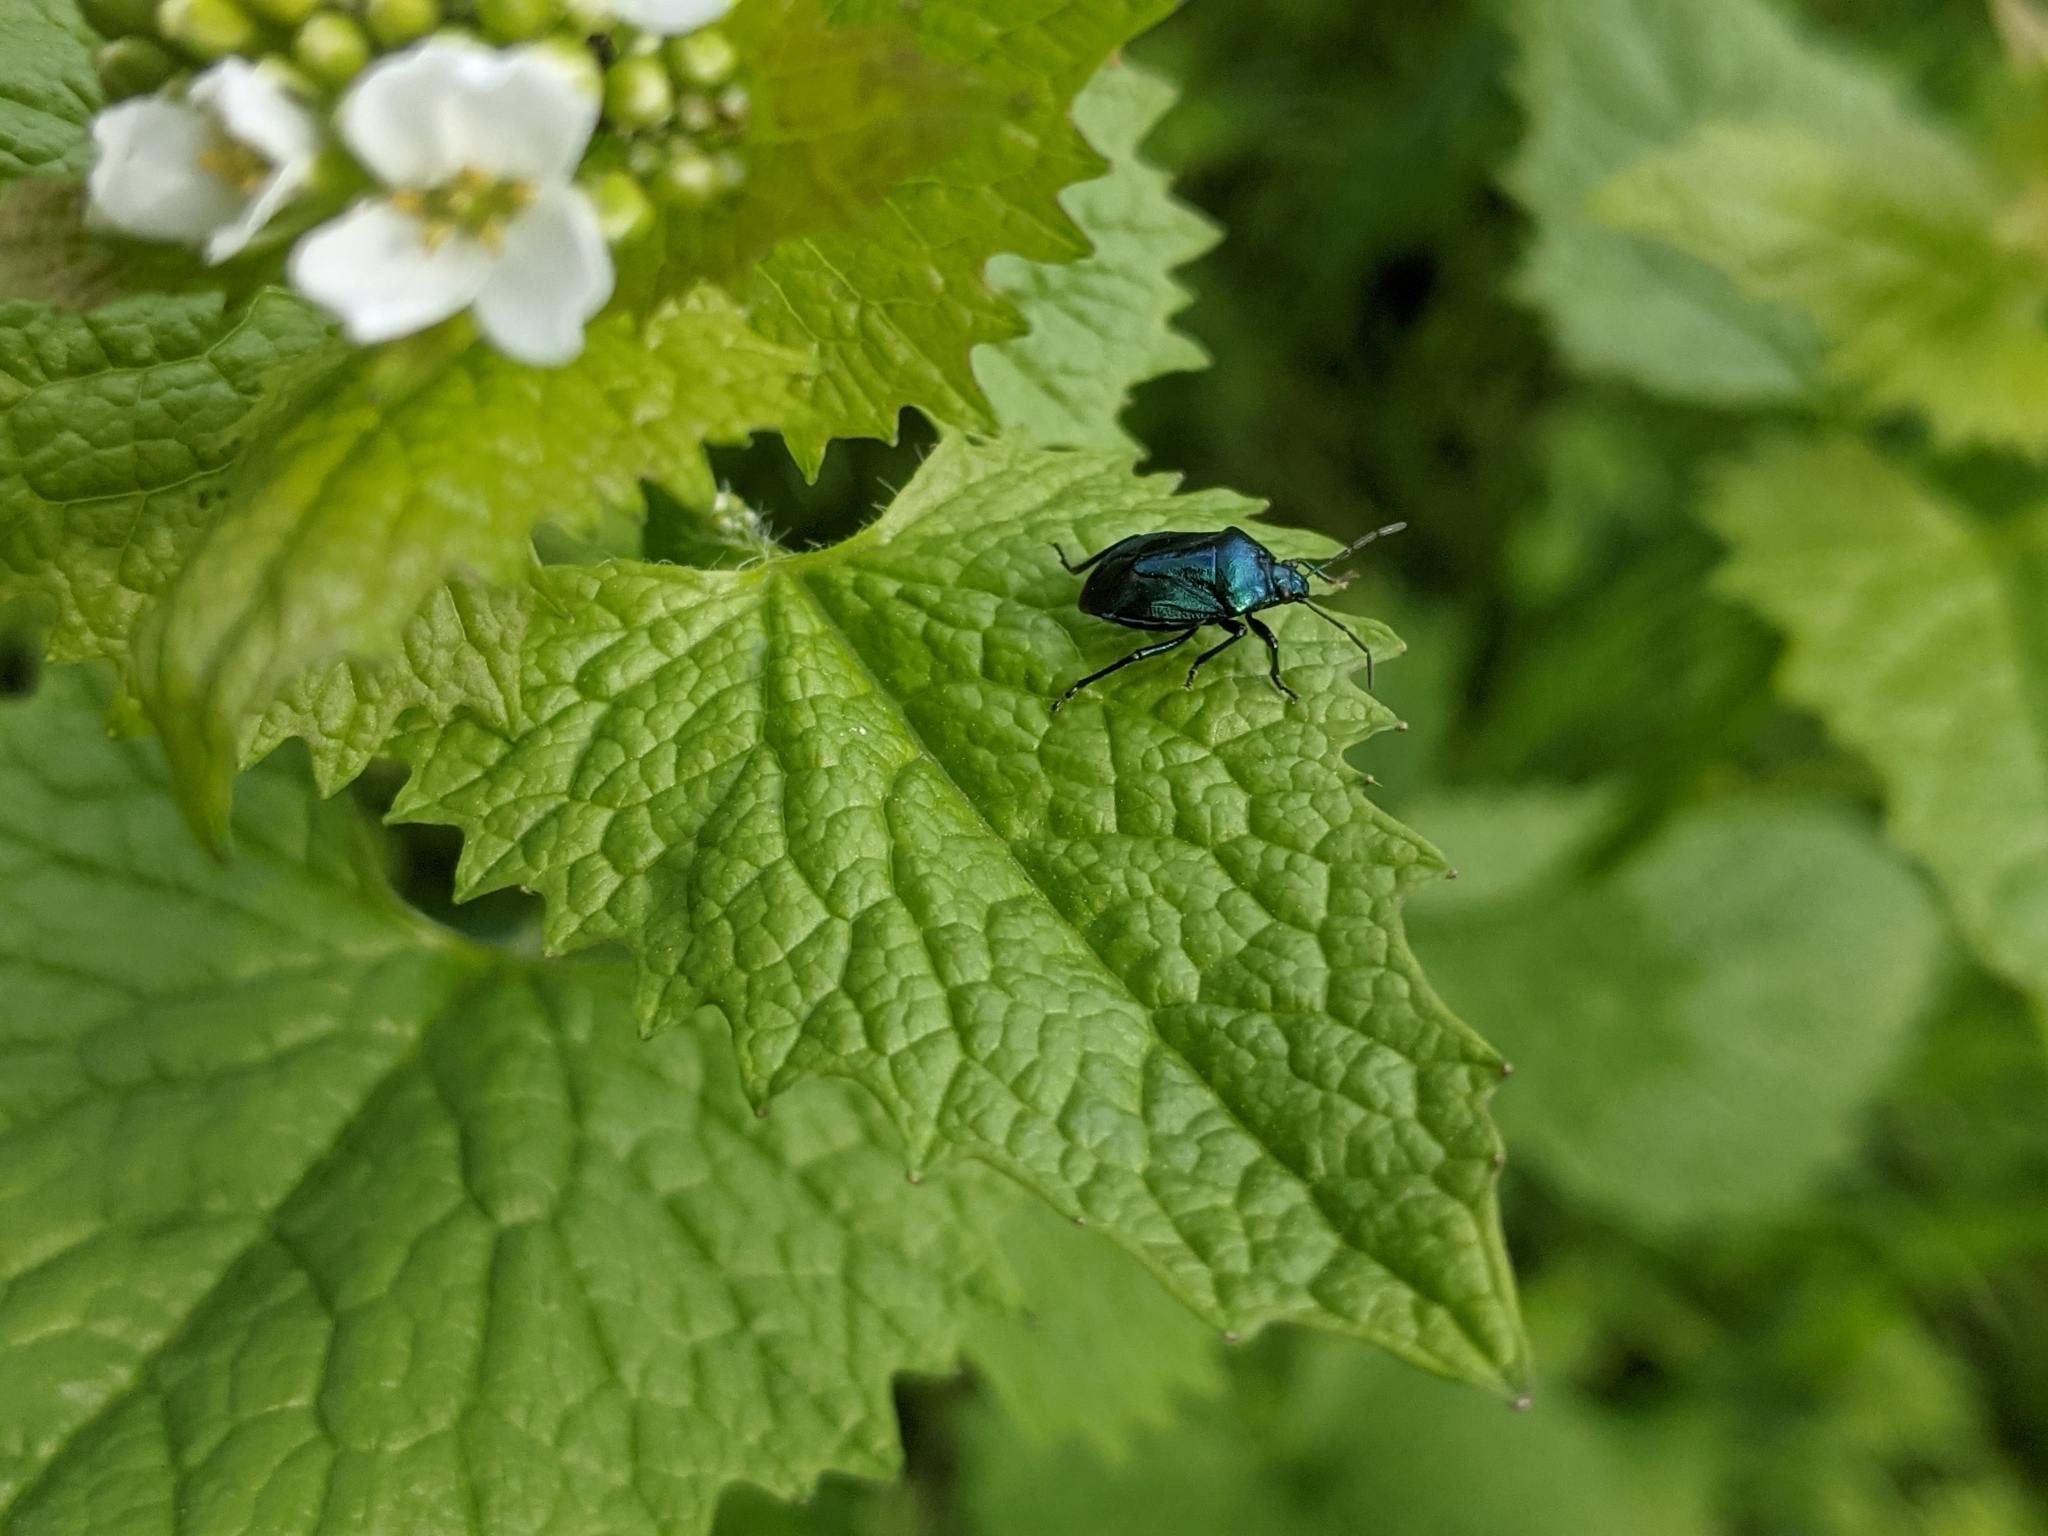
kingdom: Animalia
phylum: Arthropoda
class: Insecta
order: Hemiptera
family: Pentatomidae
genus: Zicrona
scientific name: Zicrona caerulea
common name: Blue shieldbug
